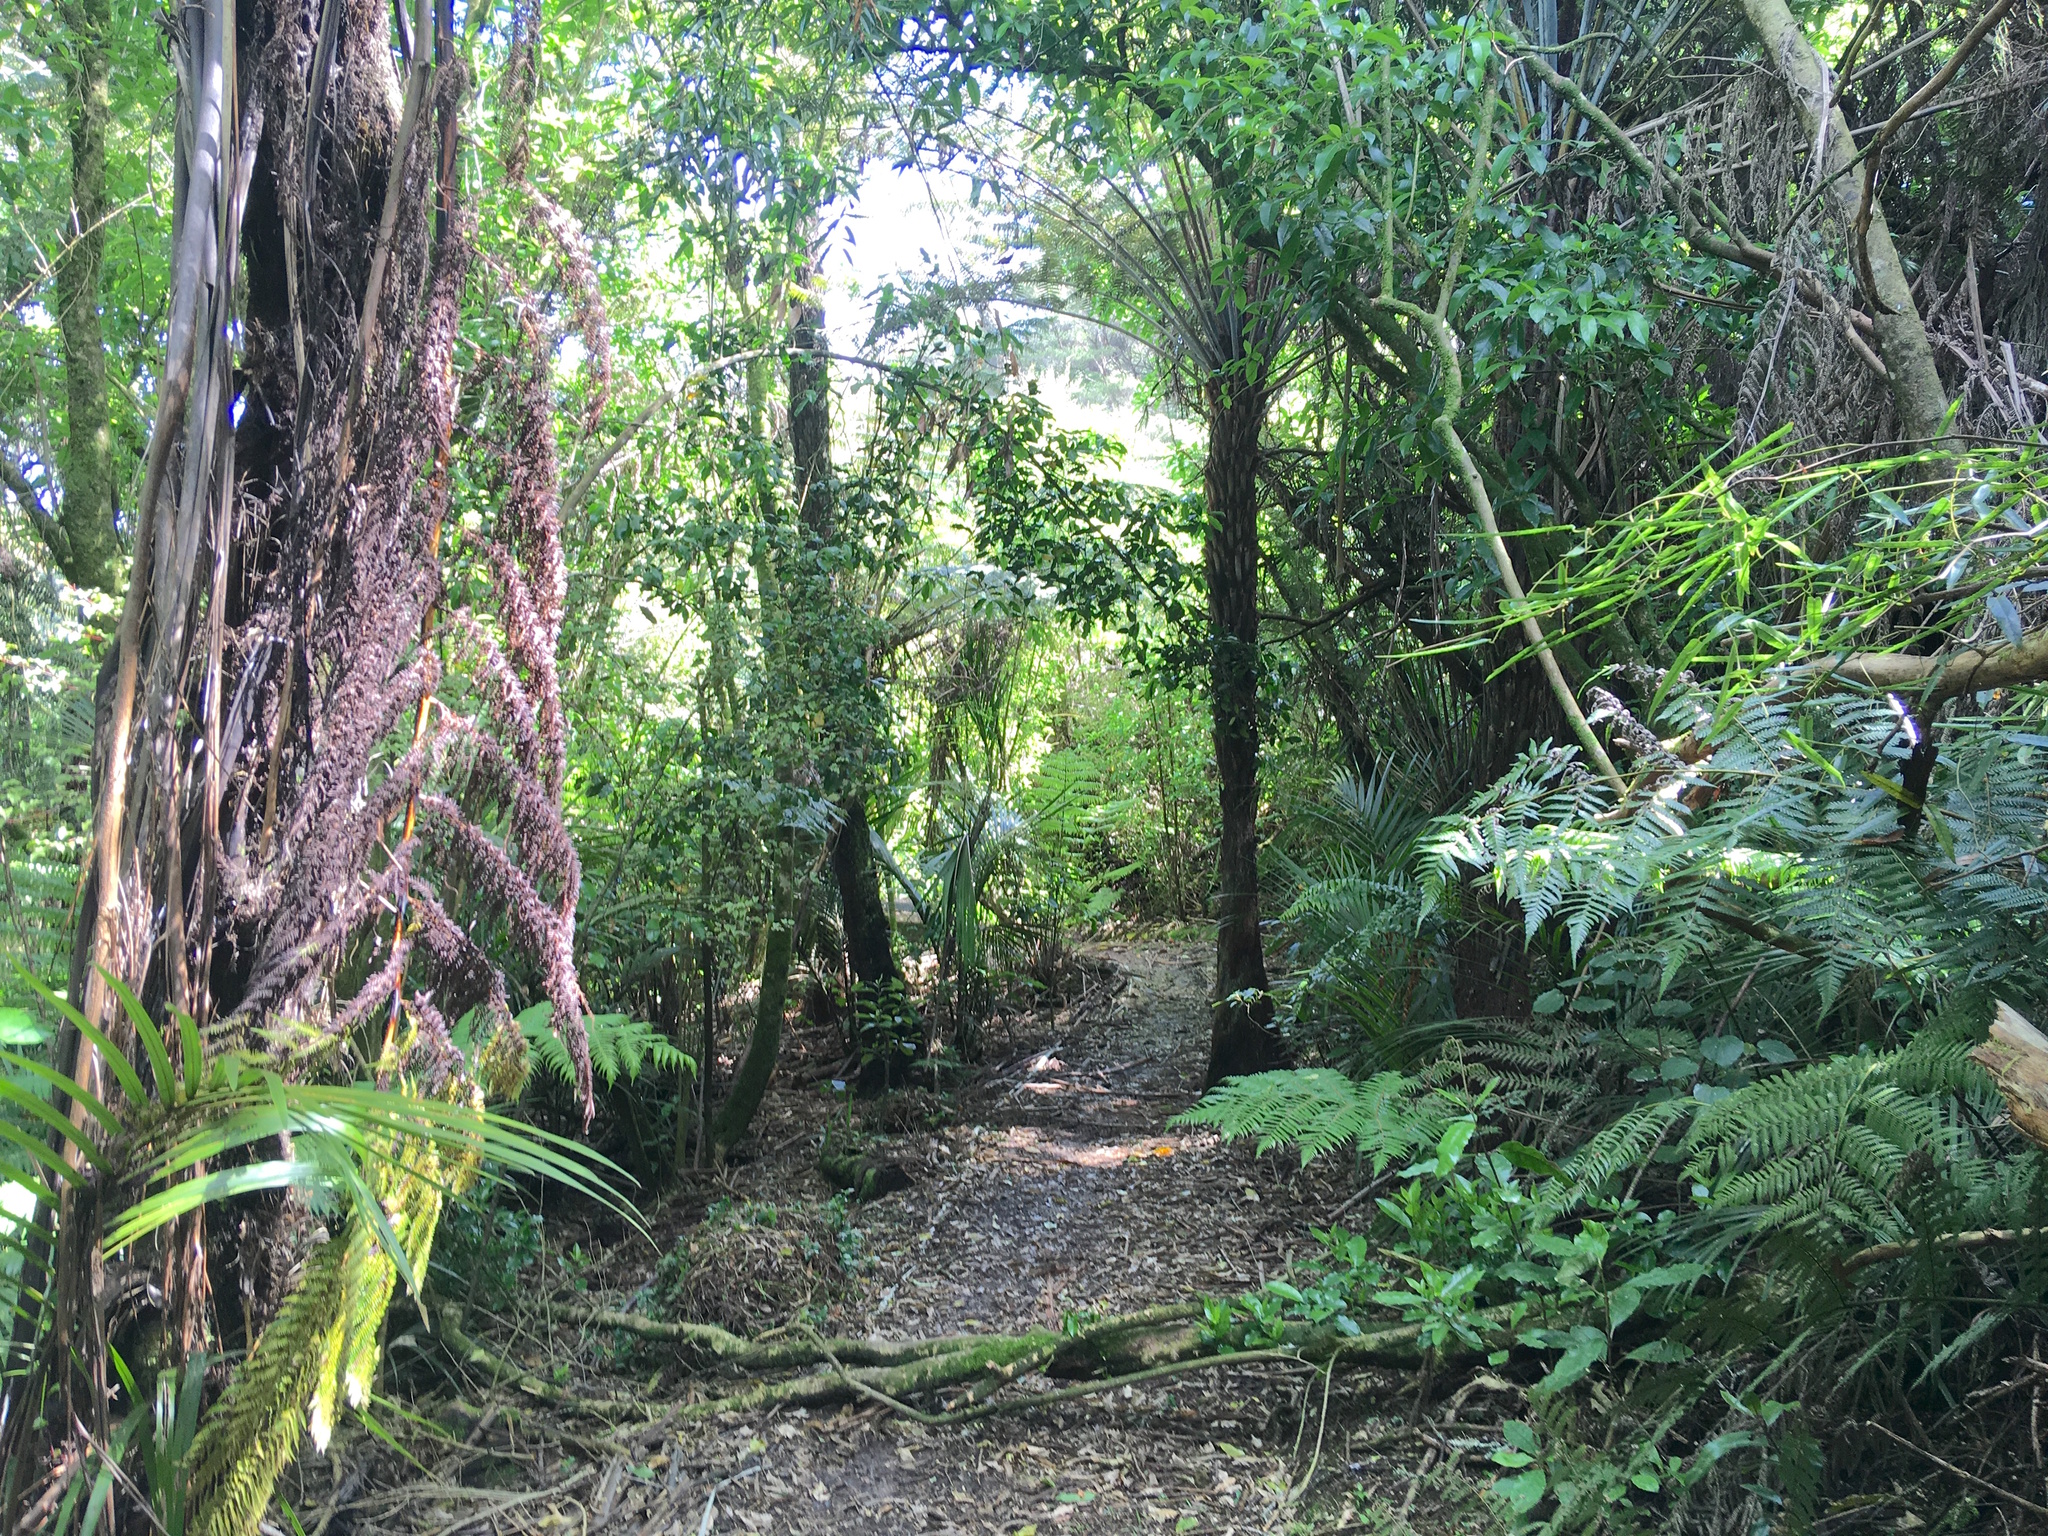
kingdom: Plantae
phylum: Tracheophyta
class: Magnoliopsida
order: Rosales
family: Rosaceae
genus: Rubus
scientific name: Rubus cissoides
